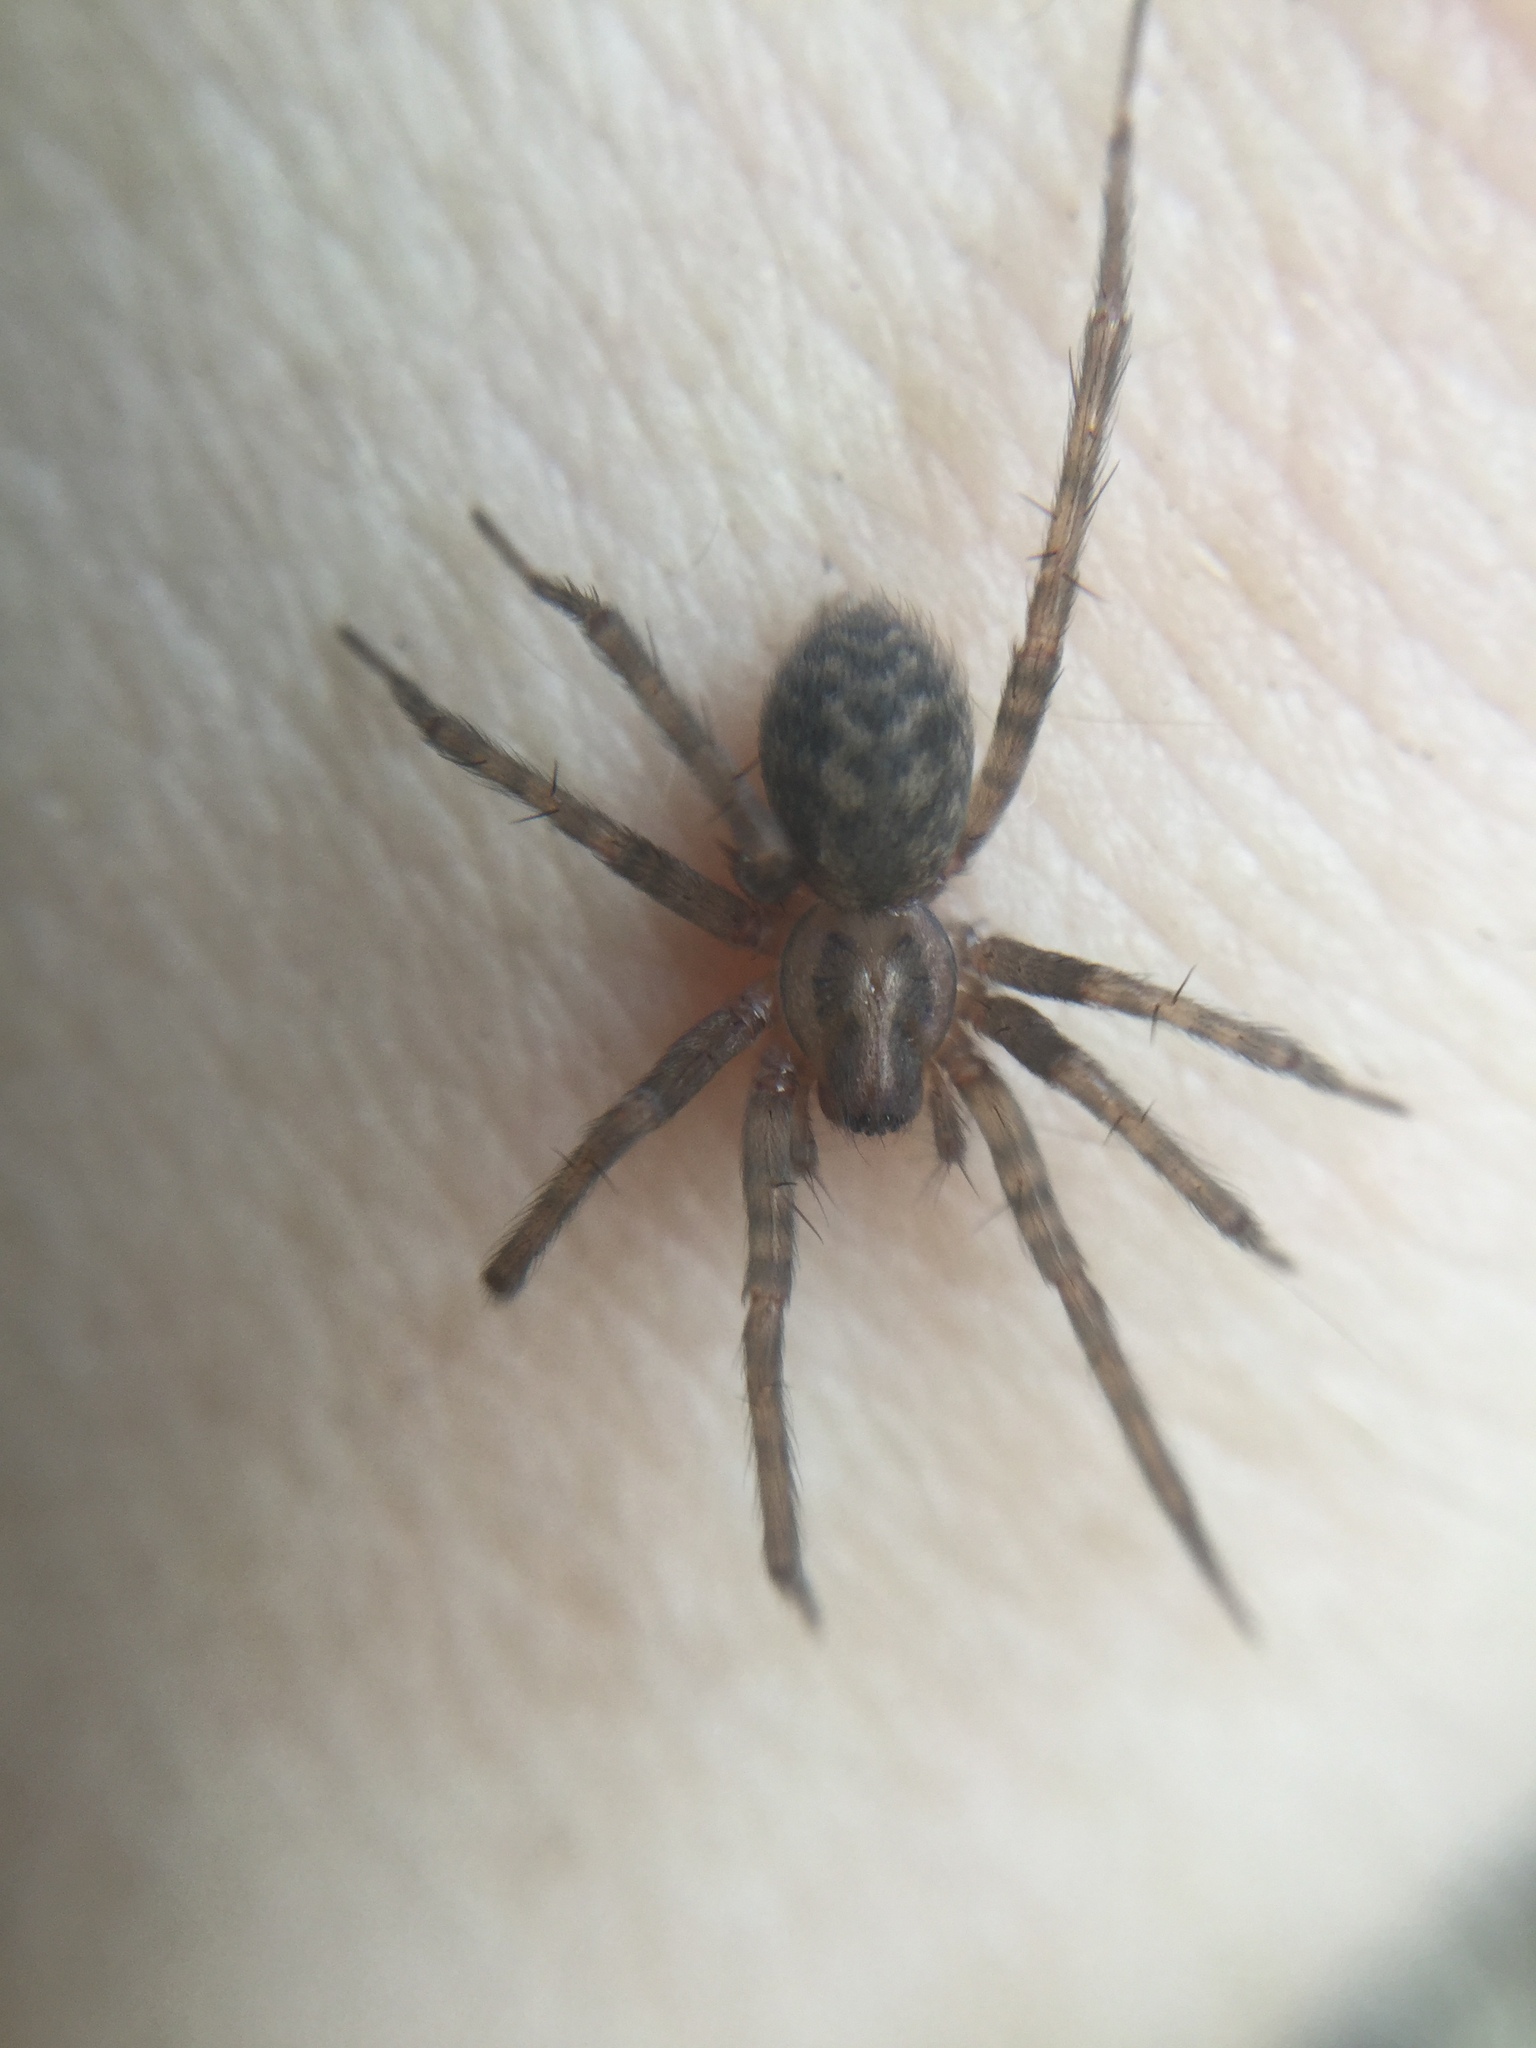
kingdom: Animalia
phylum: Arthropoda
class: Arachnida
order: Araneae
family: Agelenidae
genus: Tegenaria
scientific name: Tegenaria domestica
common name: Barn funnel weaver
